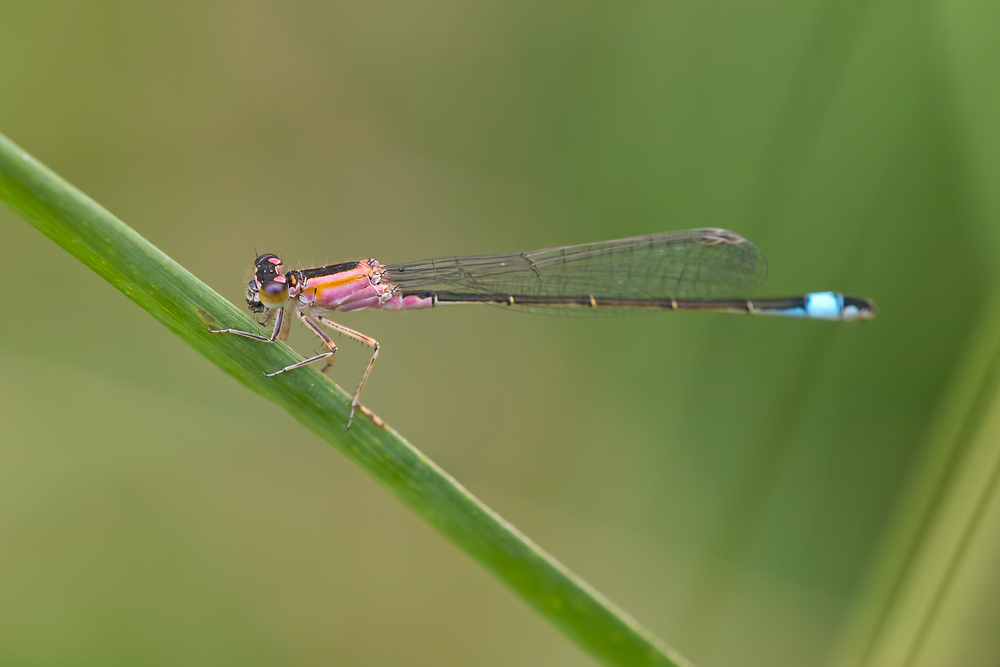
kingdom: Animalia
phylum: Arthropoda
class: Insecta
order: Odonata
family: Coenagrionidae
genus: Ischnura
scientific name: Ischnura elegans
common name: Blue-tailed damselfly
